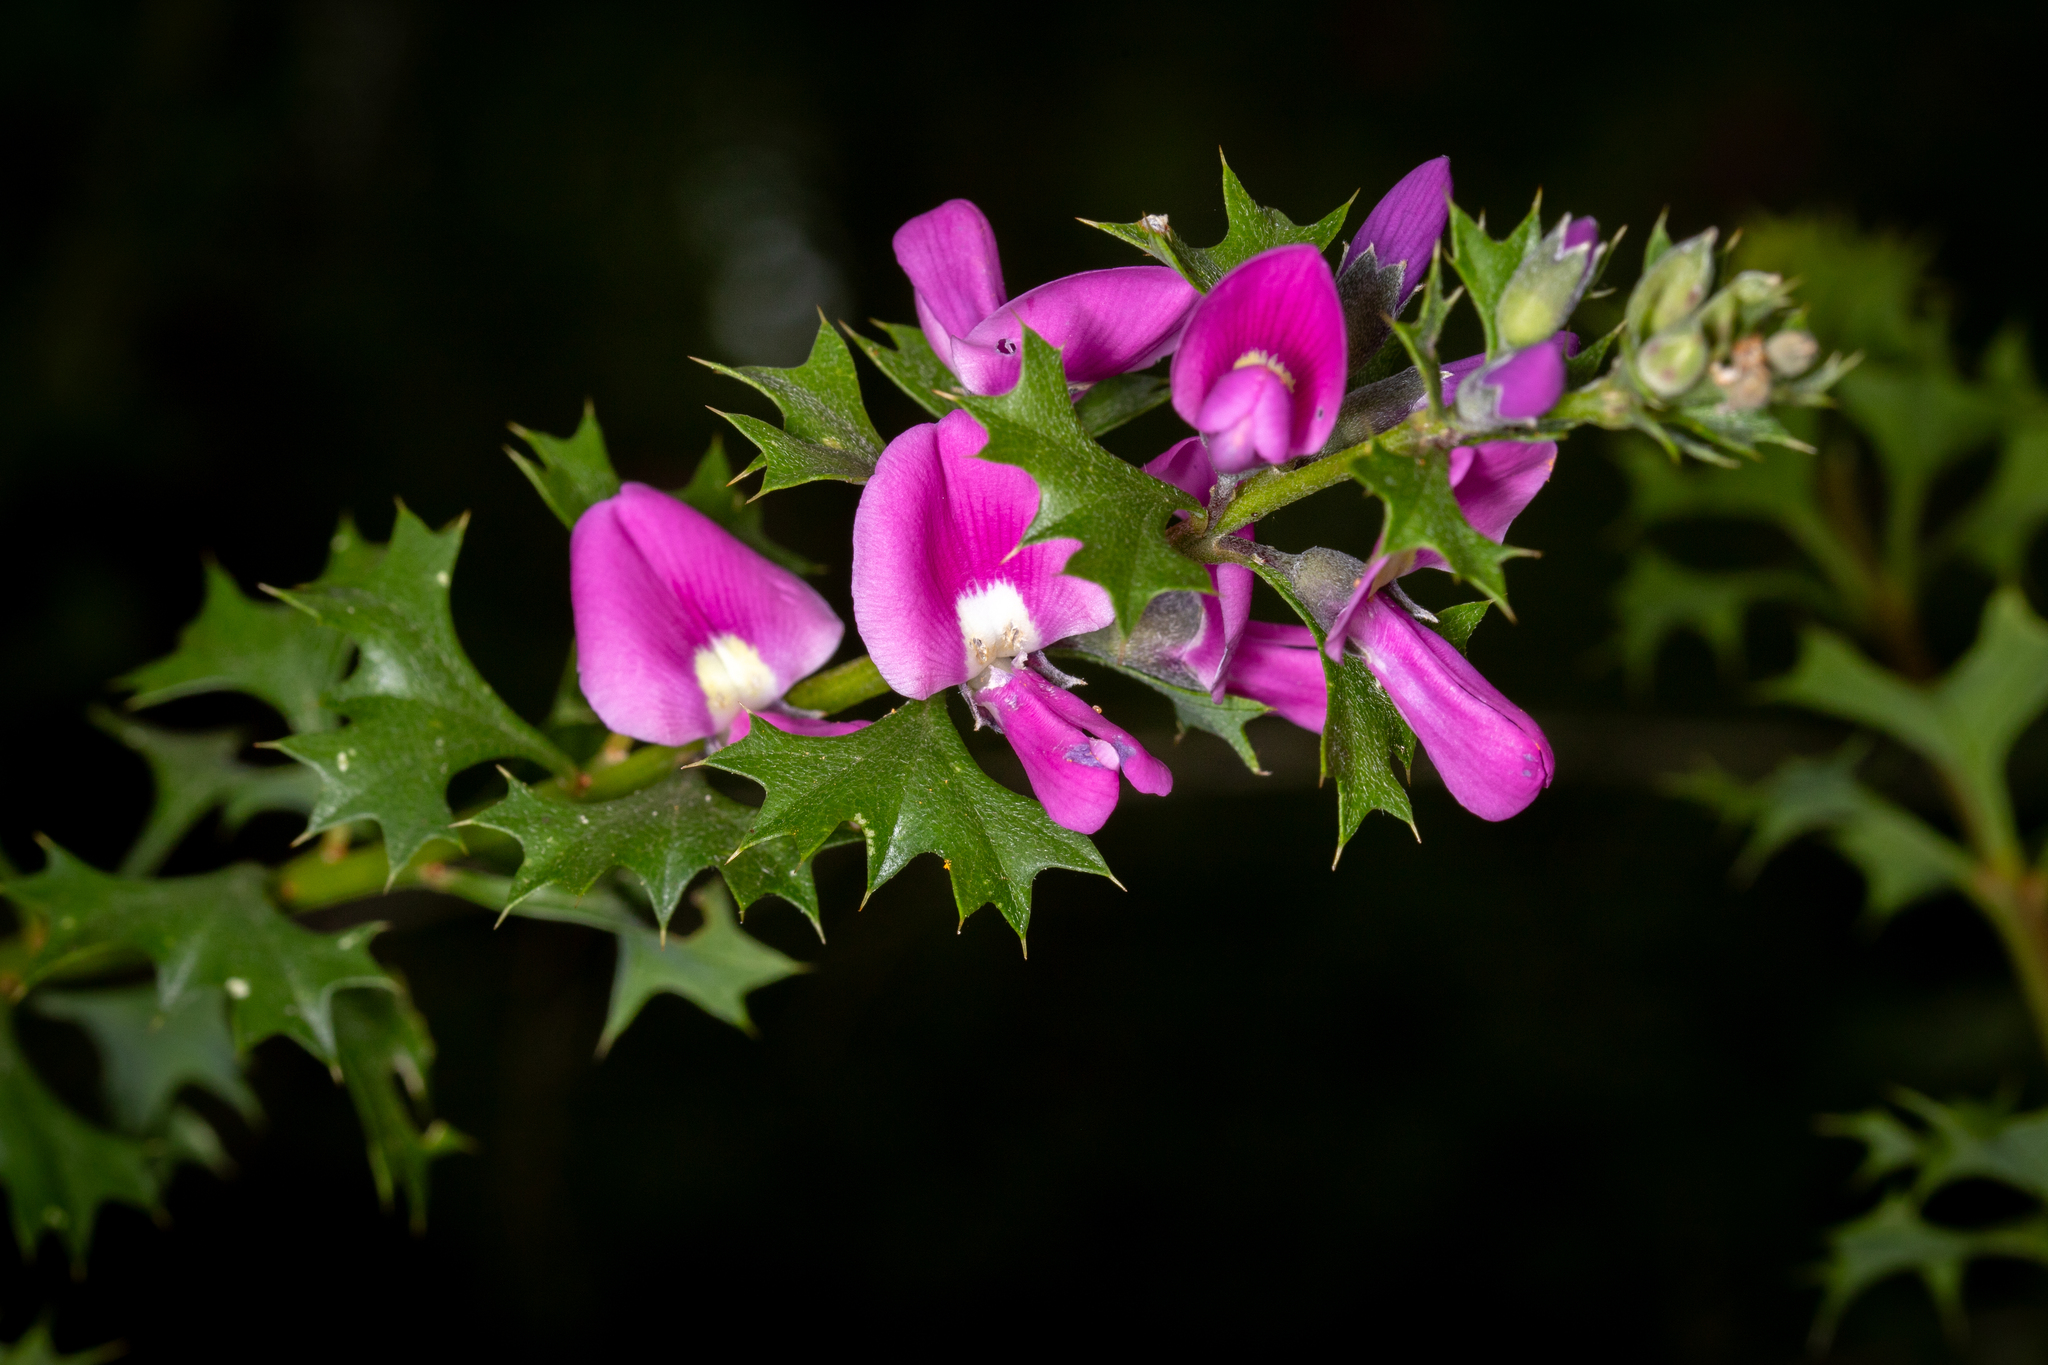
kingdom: Plantae
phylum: Tracheophyta
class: Magnoliopsida
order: Fabales
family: Fabaceae
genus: Mirbelia
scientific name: Mirbelia dilatata
